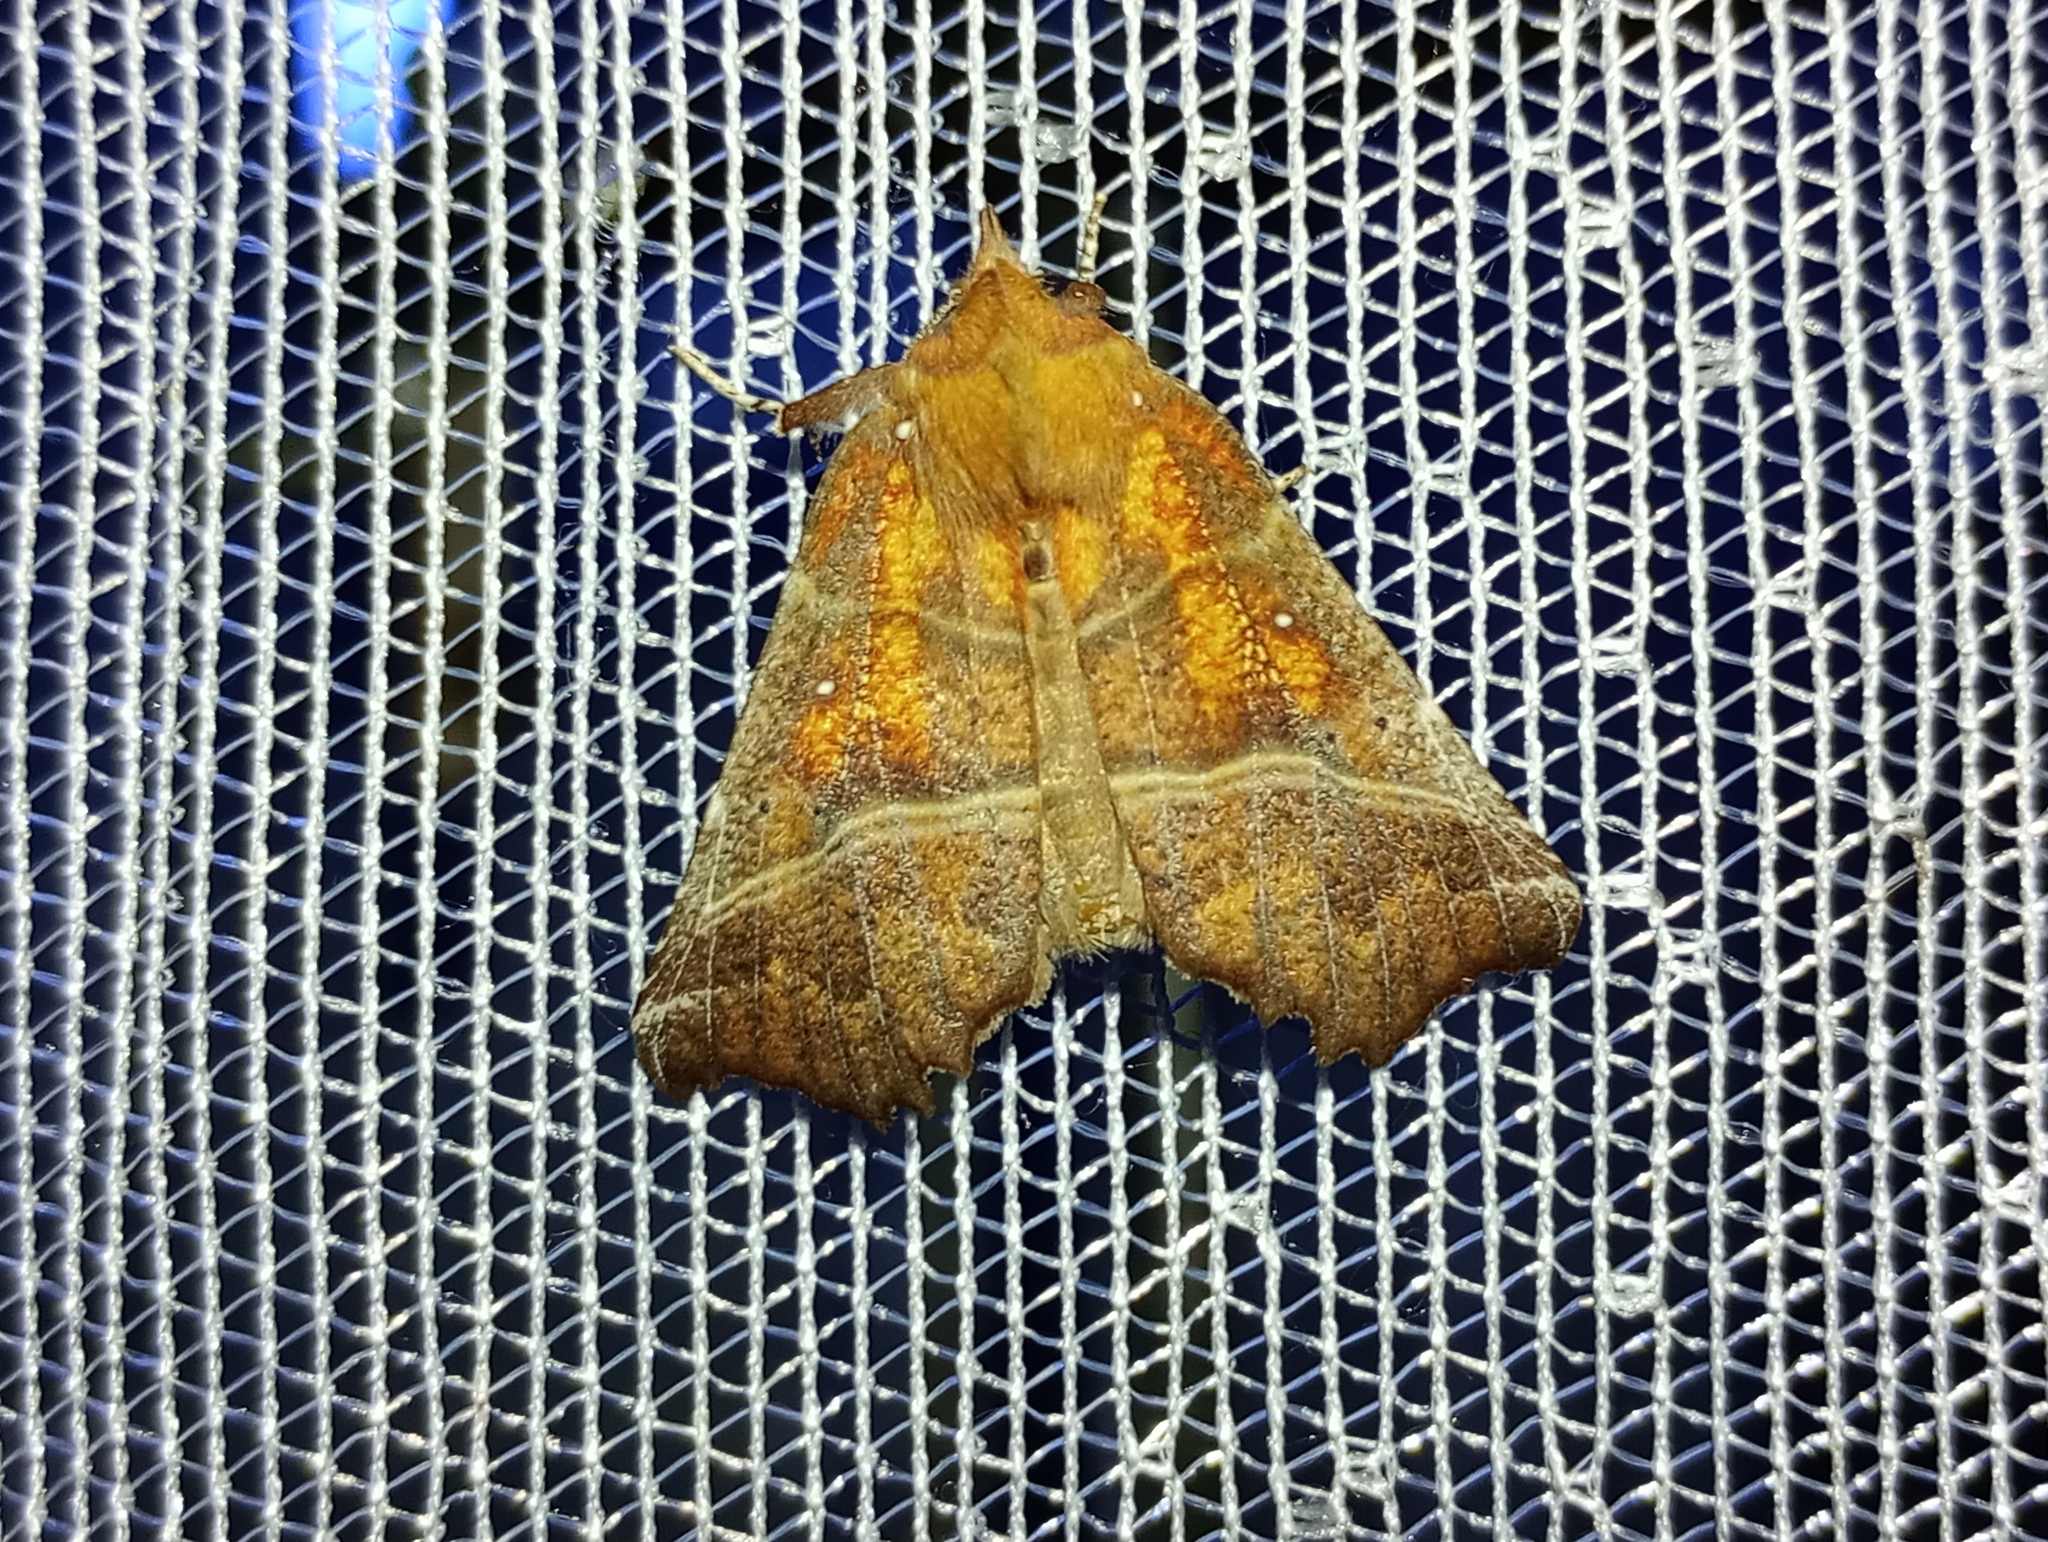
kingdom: Animalia
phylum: Arthropoda
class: Insecta
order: Lepidoptera
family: Erebidae
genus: Scoliopteryx
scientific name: Scoliopteryx libatrix
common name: Herald
